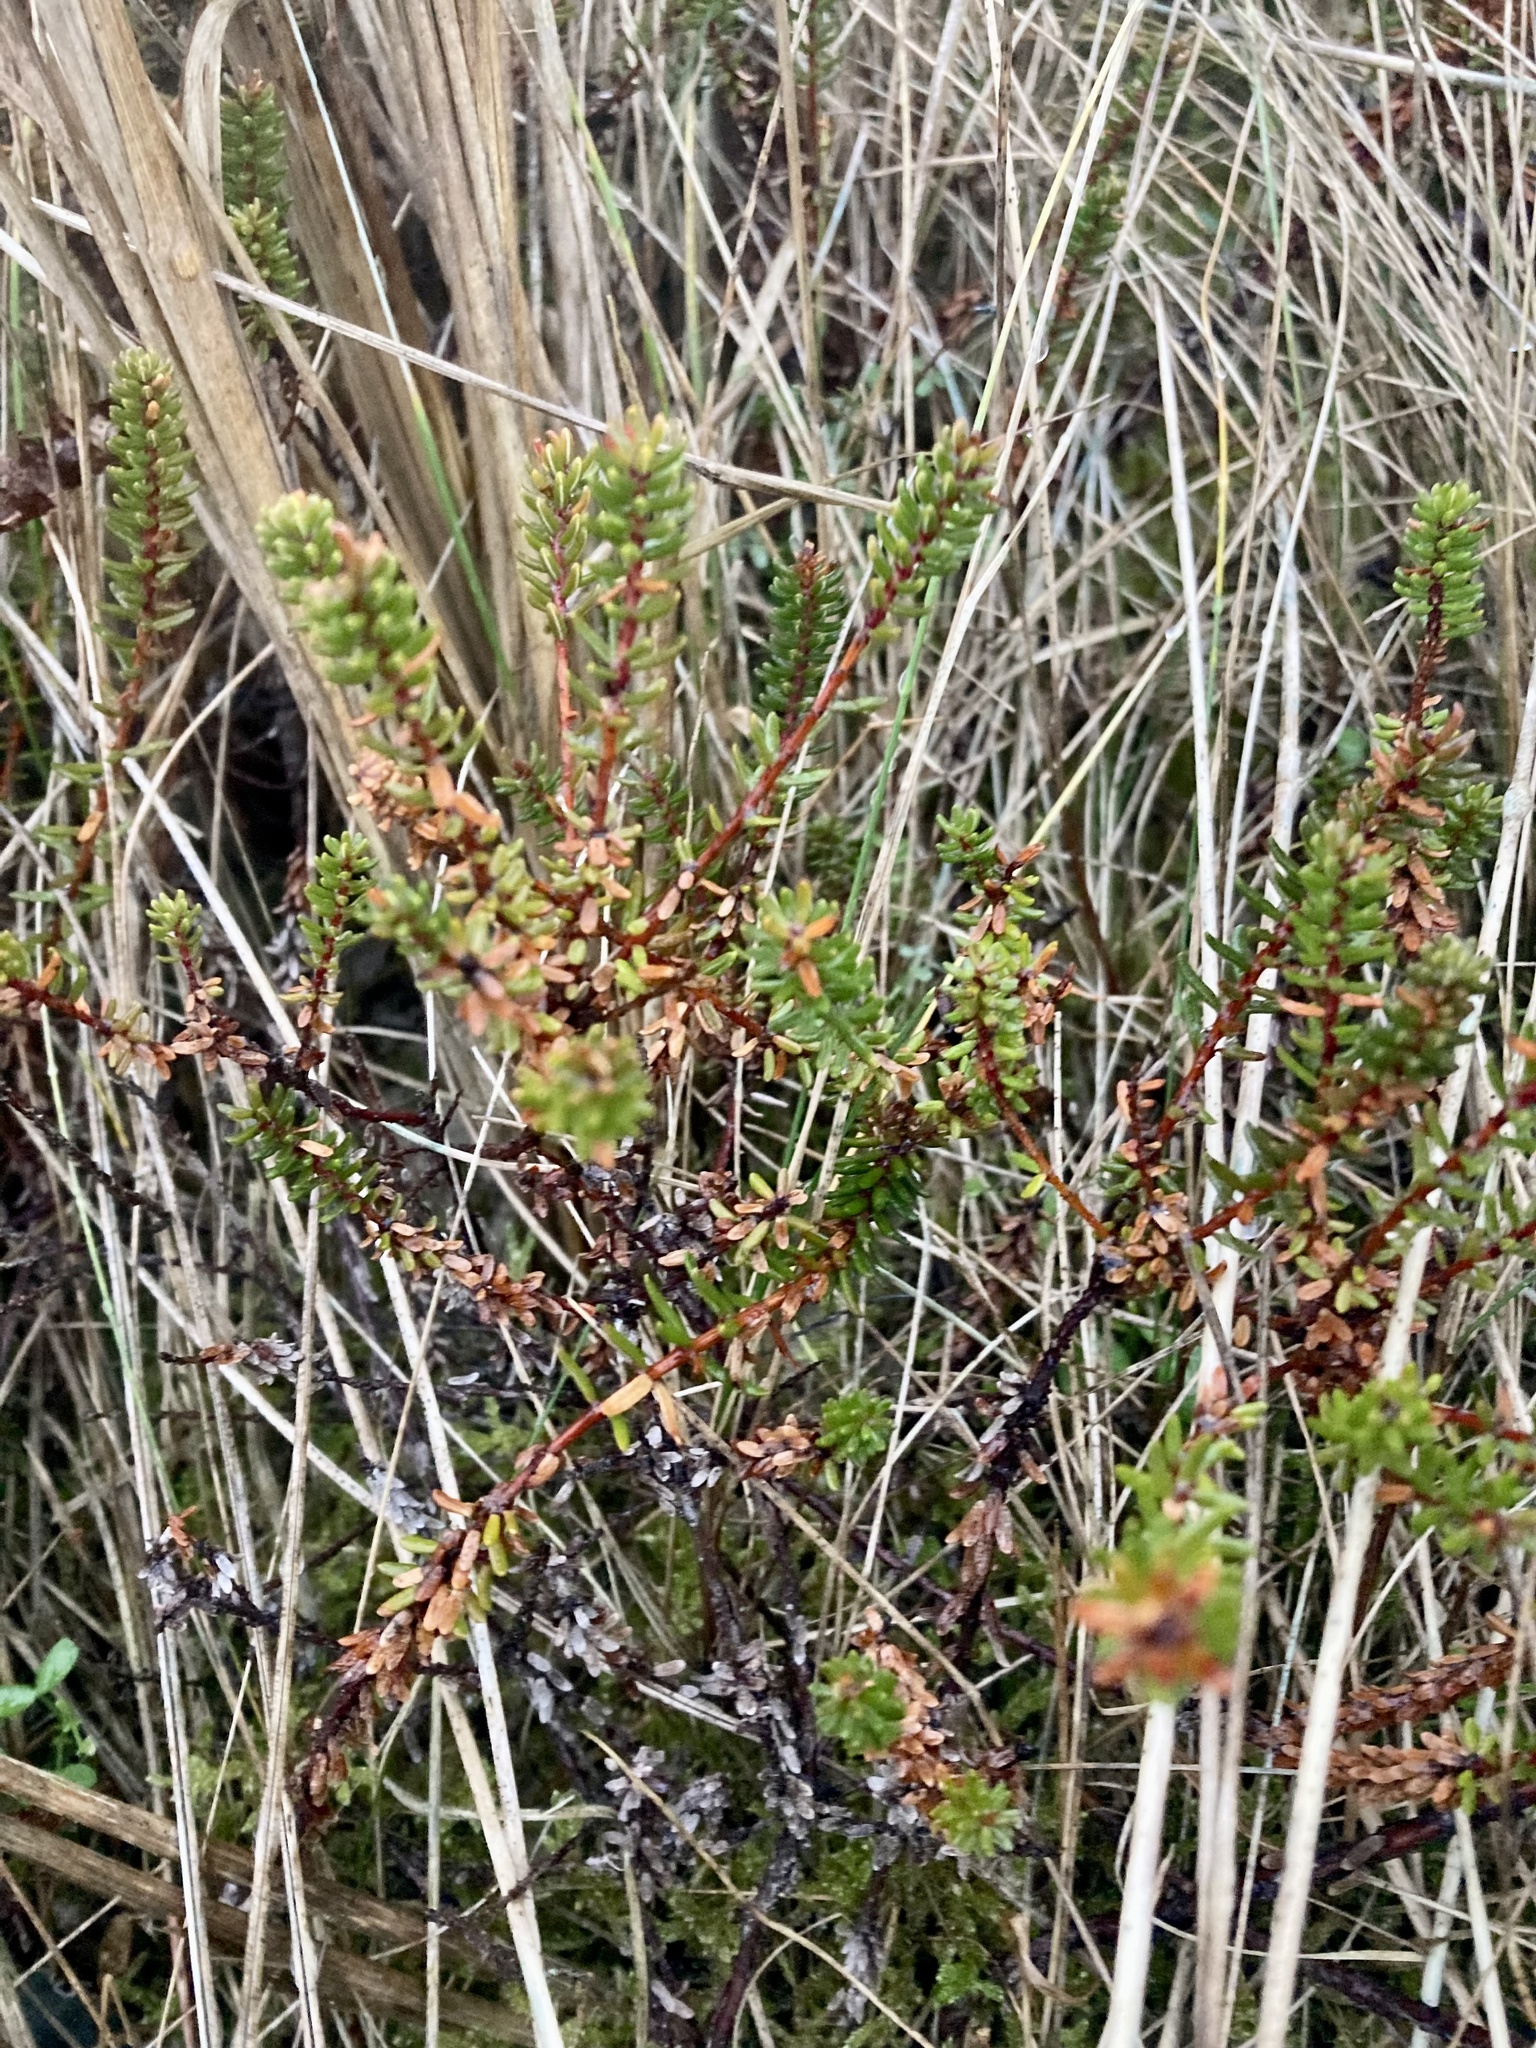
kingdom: Plantae
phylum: Tracheophyta
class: Magnoliopsida
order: Ericales
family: Ericaceae
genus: Empetrum
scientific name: Empetrum nigrum
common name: Black crowberry
